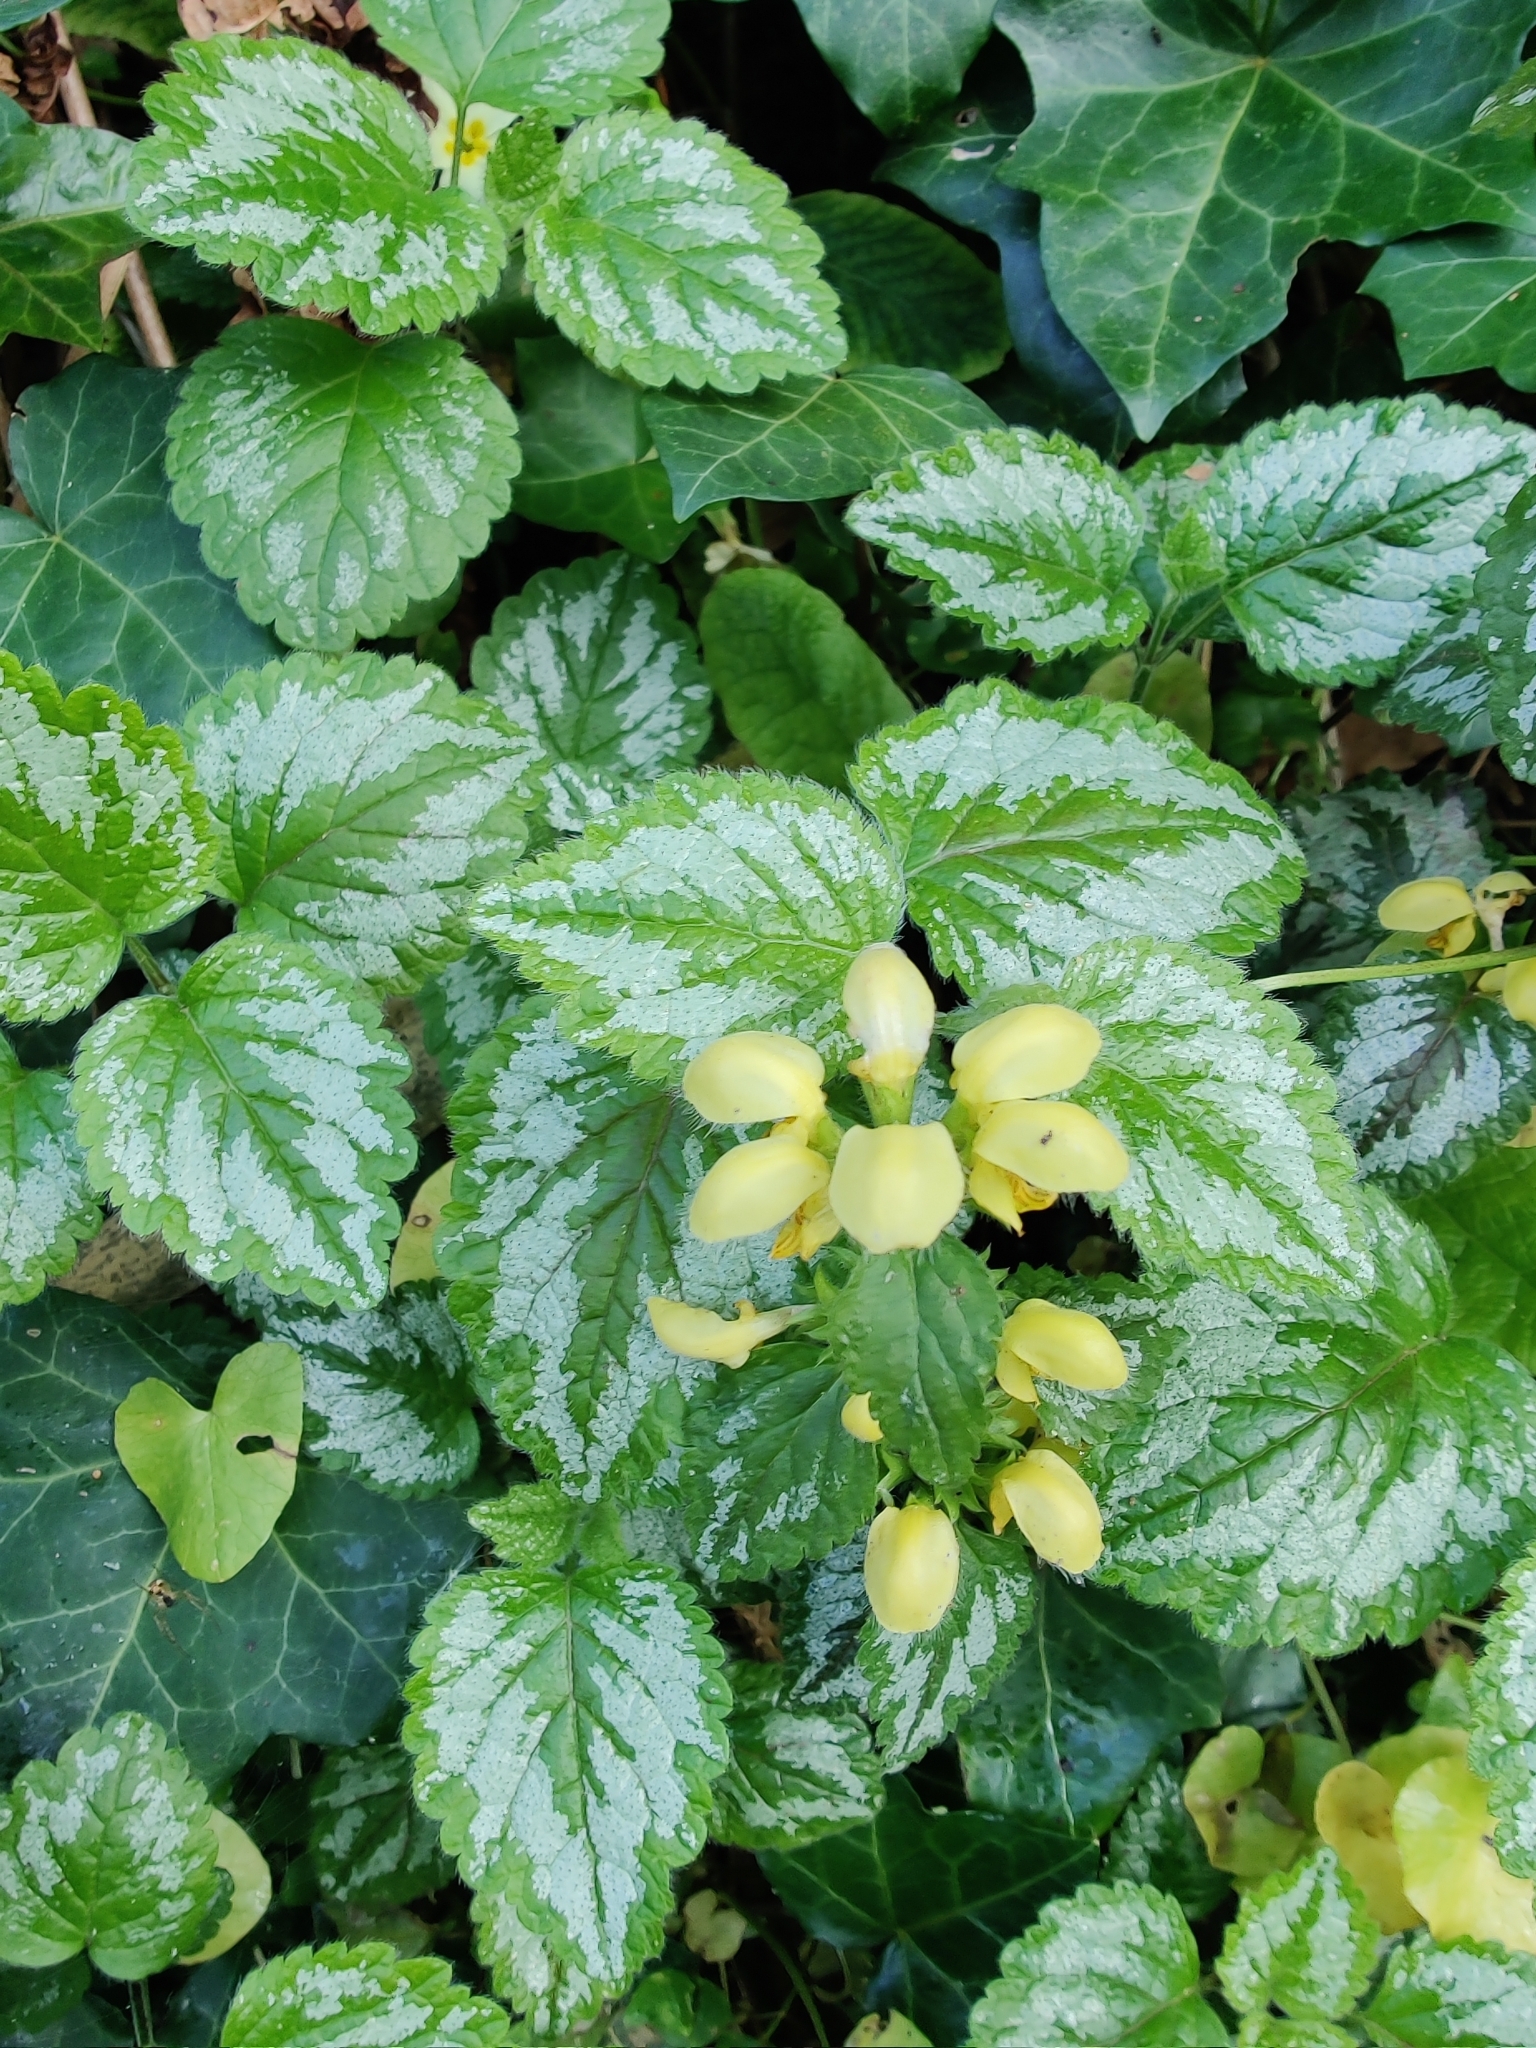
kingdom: Plantae
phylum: Tracheophyta
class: Magnoliopsida
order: Lamiales
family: Lamiaceae
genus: Lamium
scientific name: Lamium galeobdolon
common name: Yellow archangel
